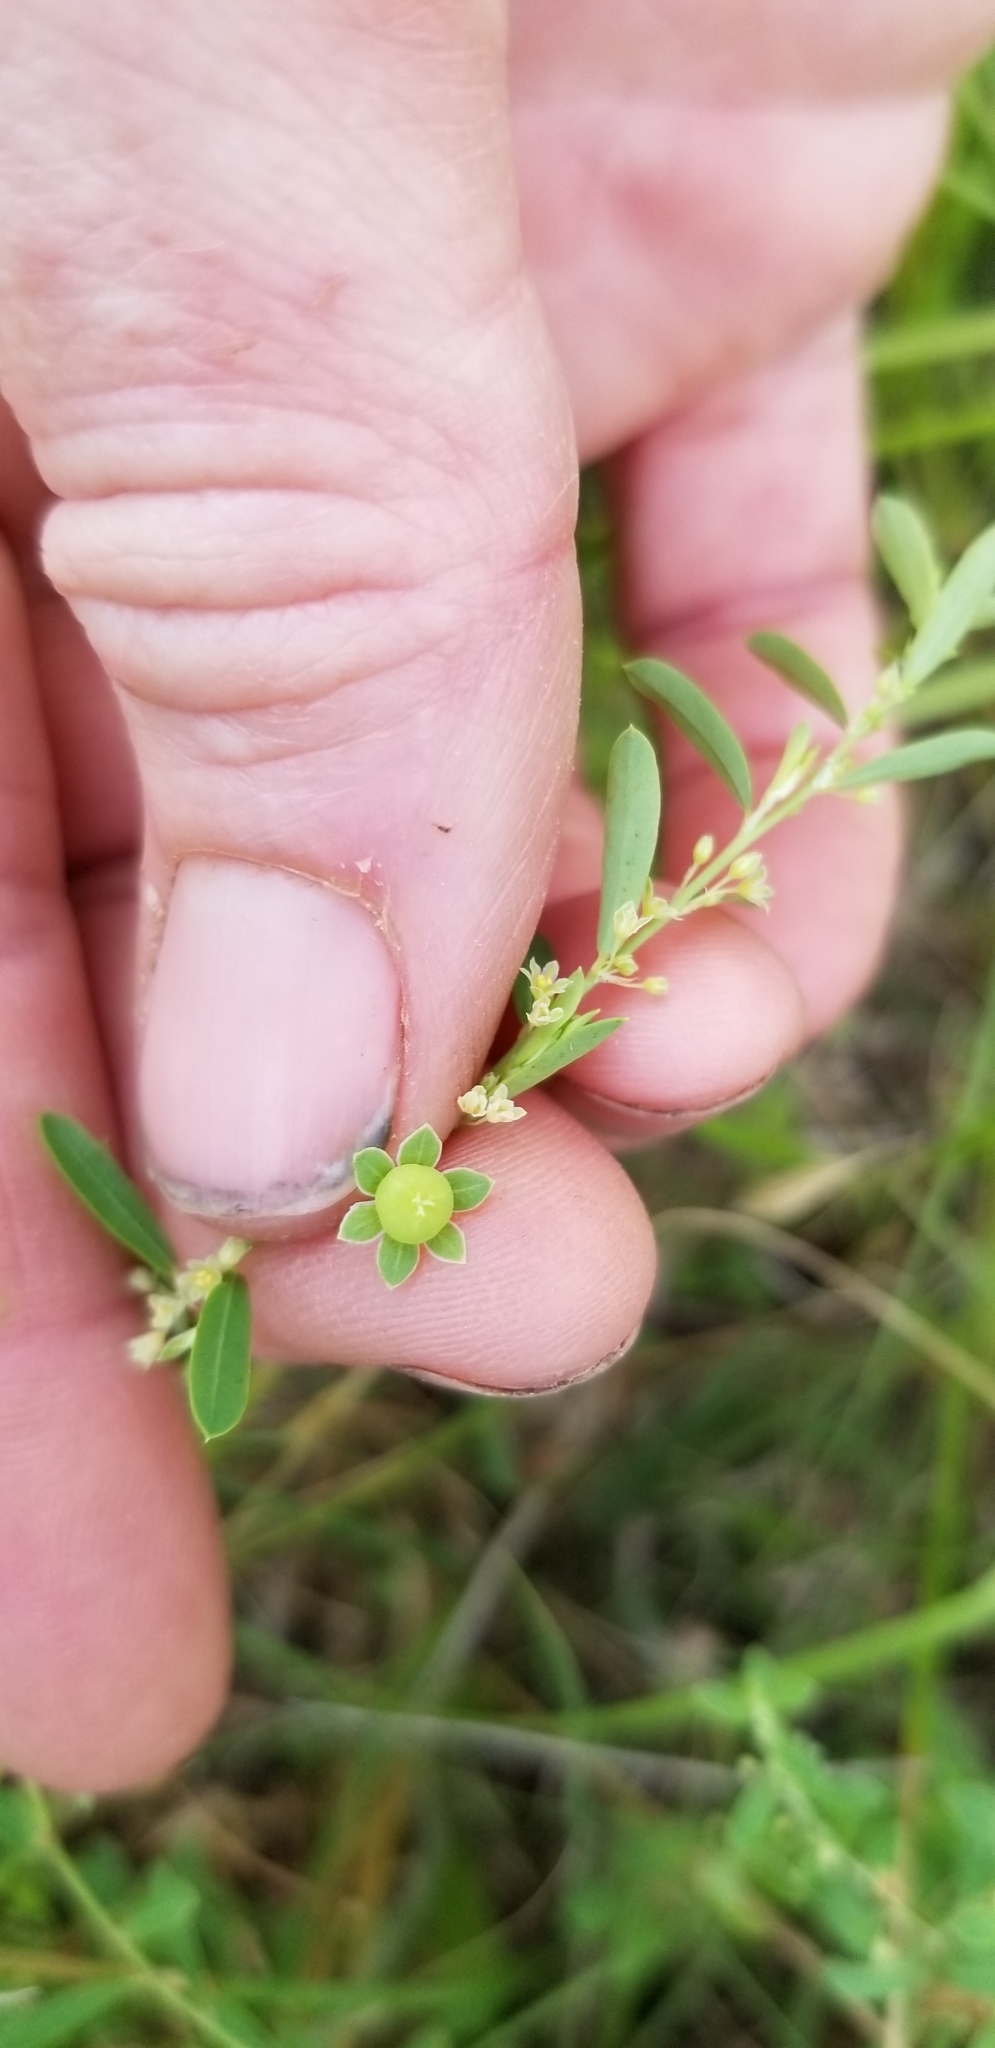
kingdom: Plantae
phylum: Tracheophyta
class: Magnoliopsida
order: Malpighiales
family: Phyllanthaceae
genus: Phyllanthus
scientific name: Phyllanthus polygonoides
